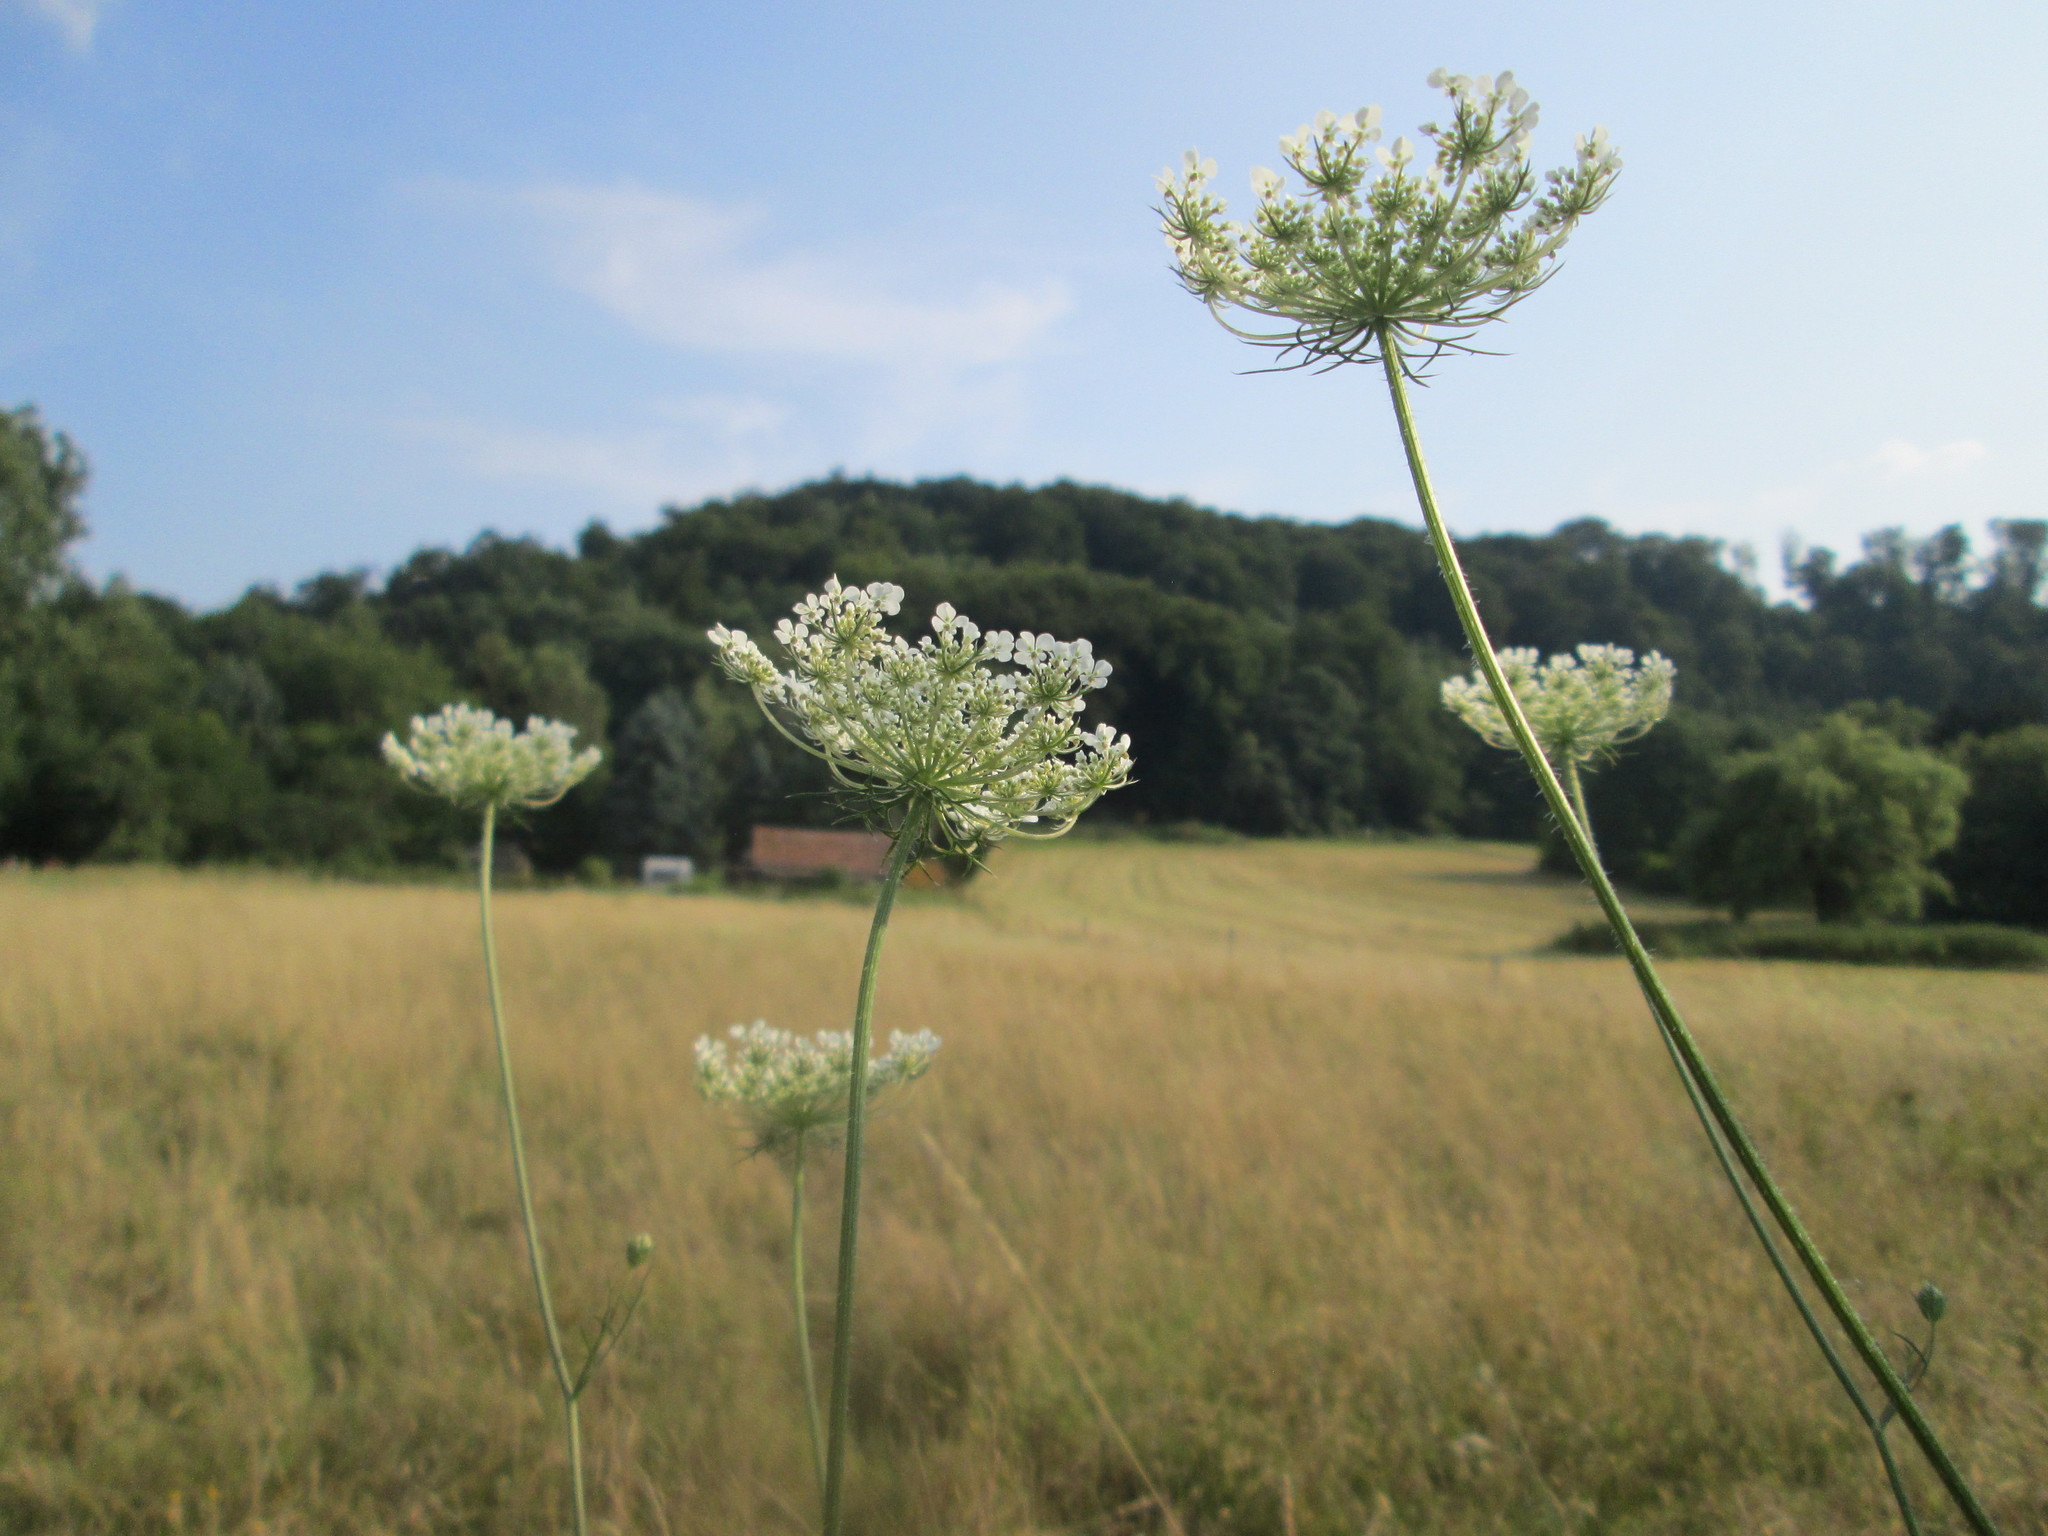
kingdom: Plantae
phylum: Tracheophyta
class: Magnoliopsida
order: Apiales
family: Apiaceae
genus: Daucus
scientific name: Daucus carota
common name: Wild carrot
